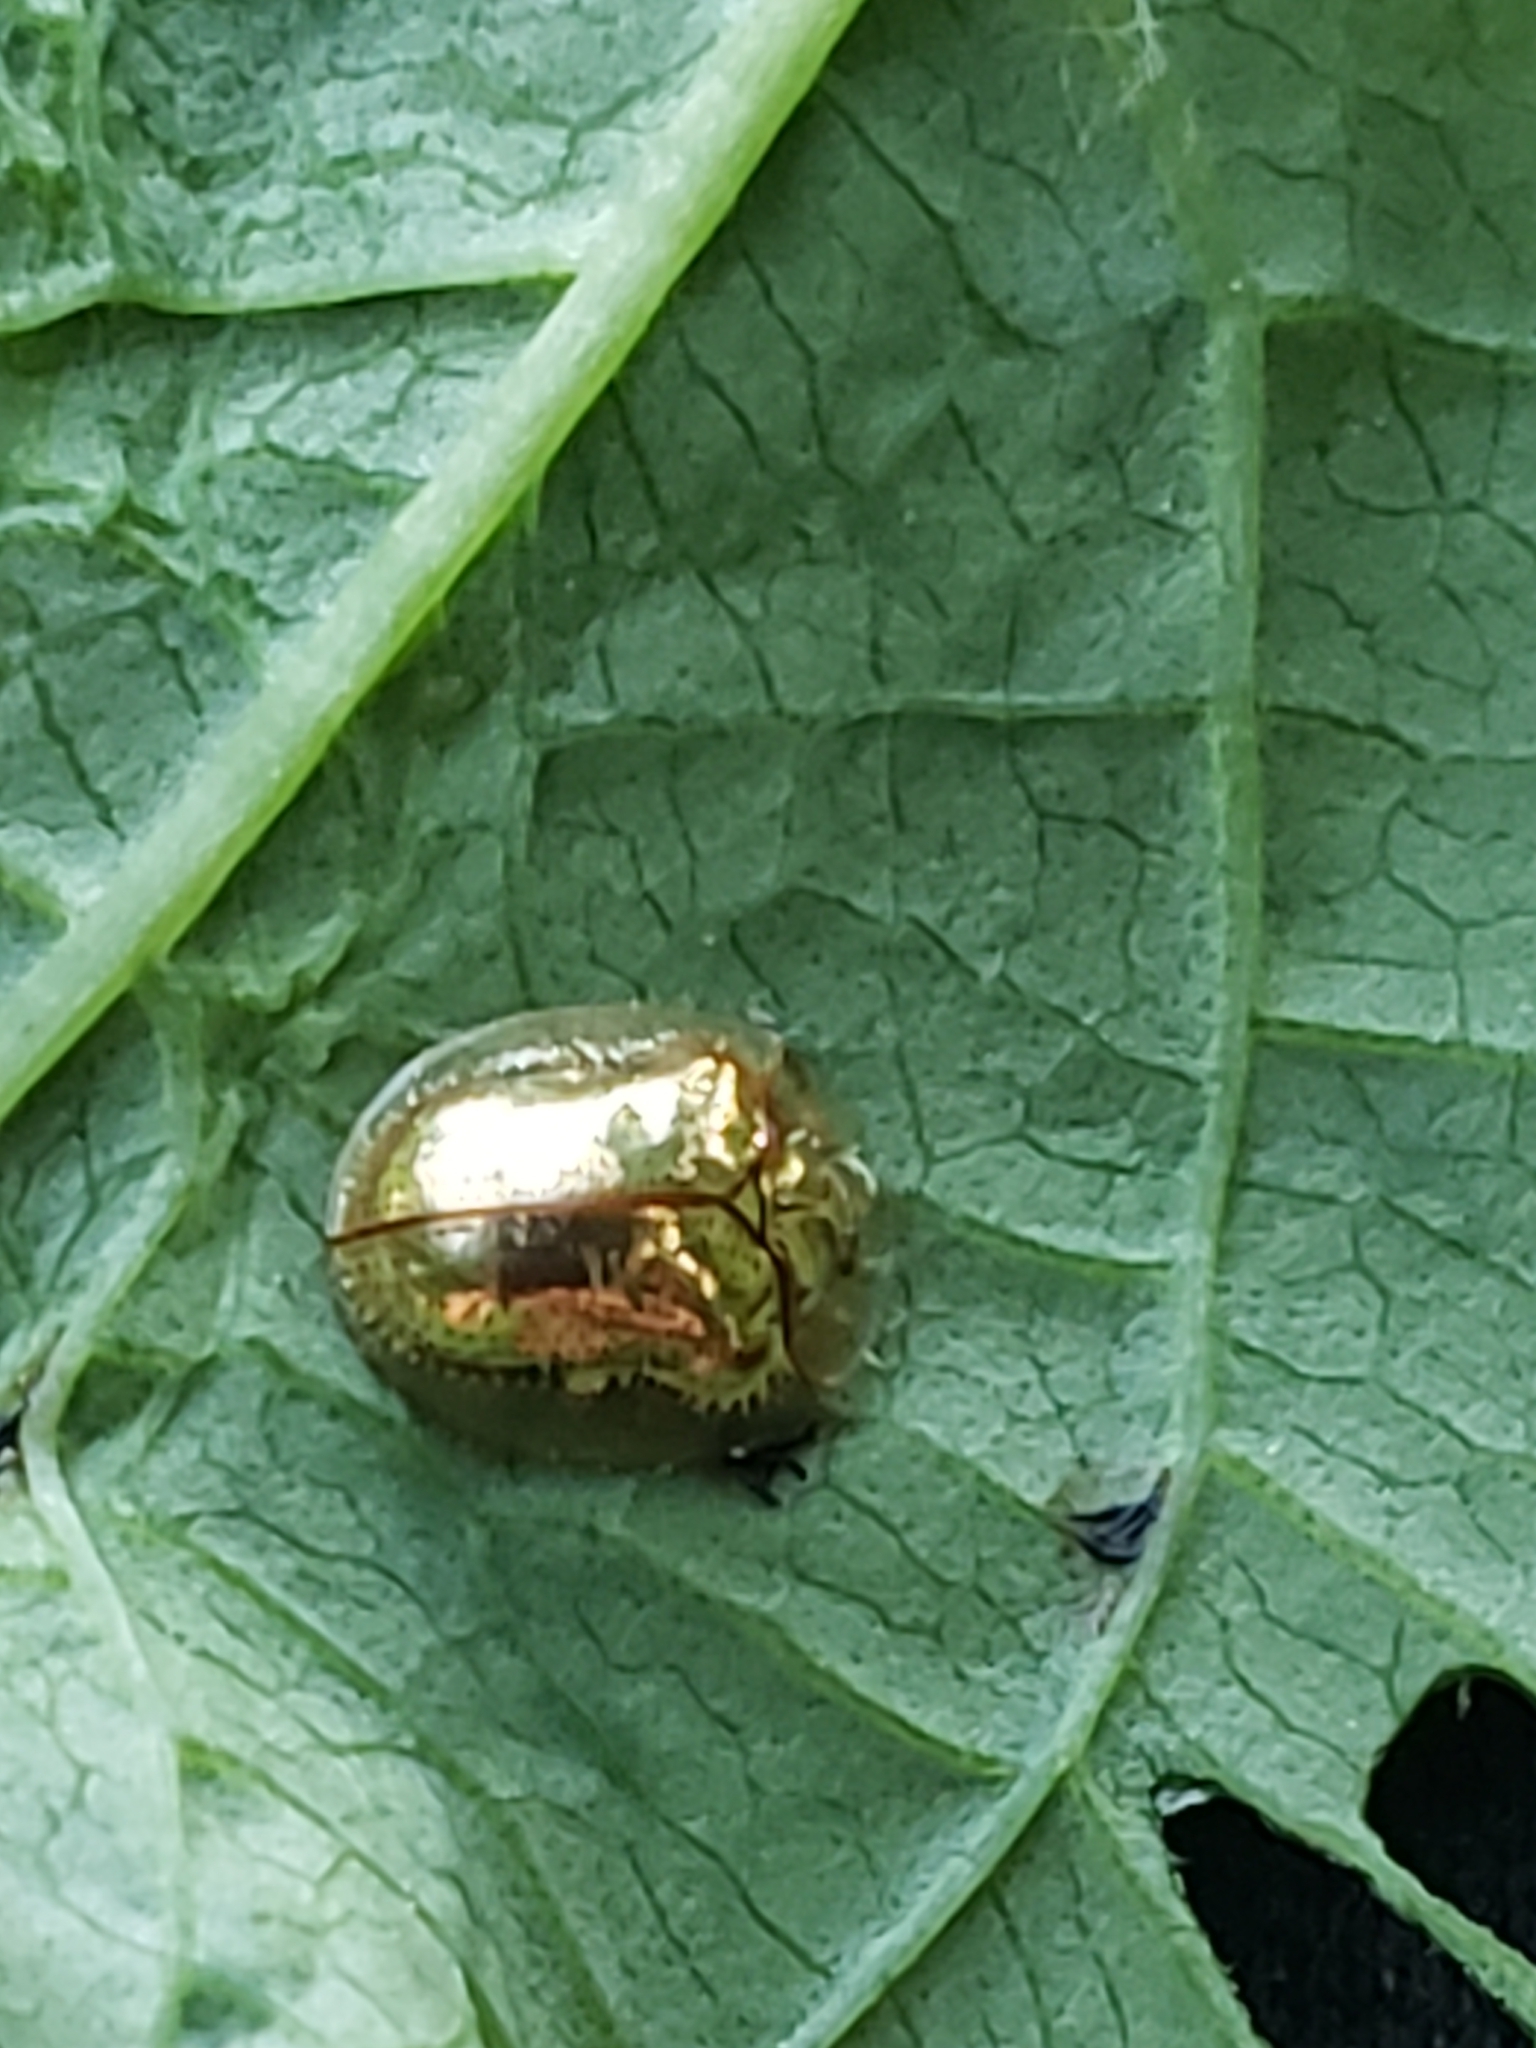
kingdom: Animalia
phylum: Arthropoda
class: Insecta
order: Coleoptera
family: Chrysomelidae
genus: Charidotella
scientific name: Charidotella sexpunctata
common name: Golden tortoise beetle
